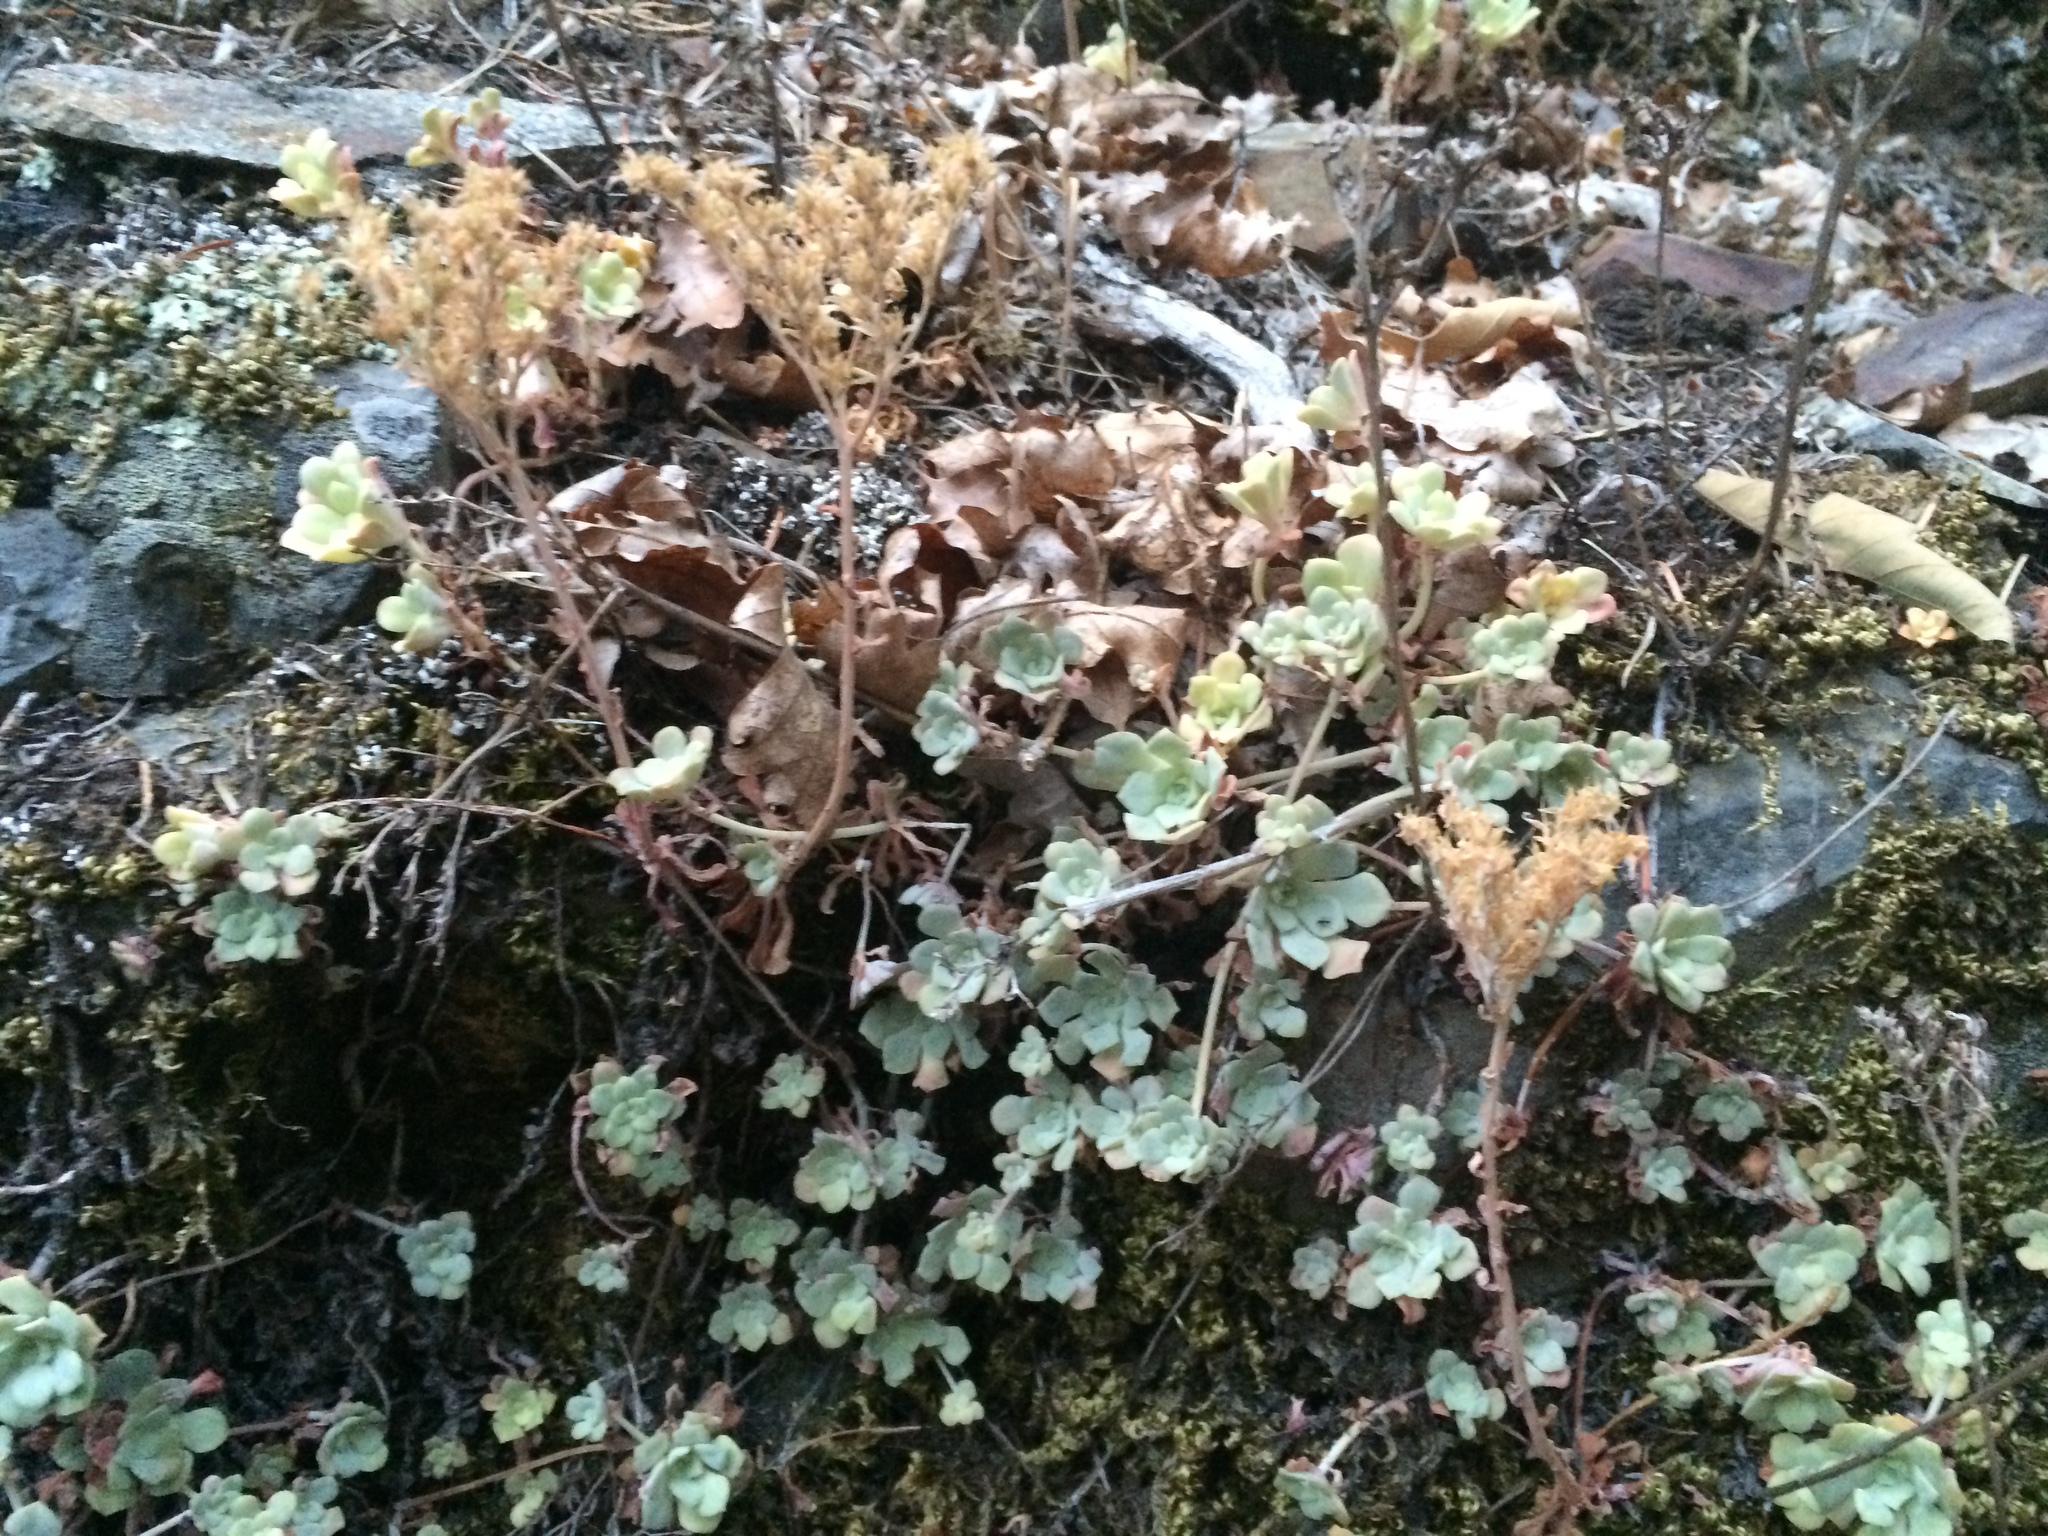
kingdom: Plantae
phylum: Tracheophyta
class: Magnoliopsida
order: Saxifragales
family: Crassulaceae
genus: Sedum
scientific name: Sedum spathulifolium
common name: Colorado stonecrop
